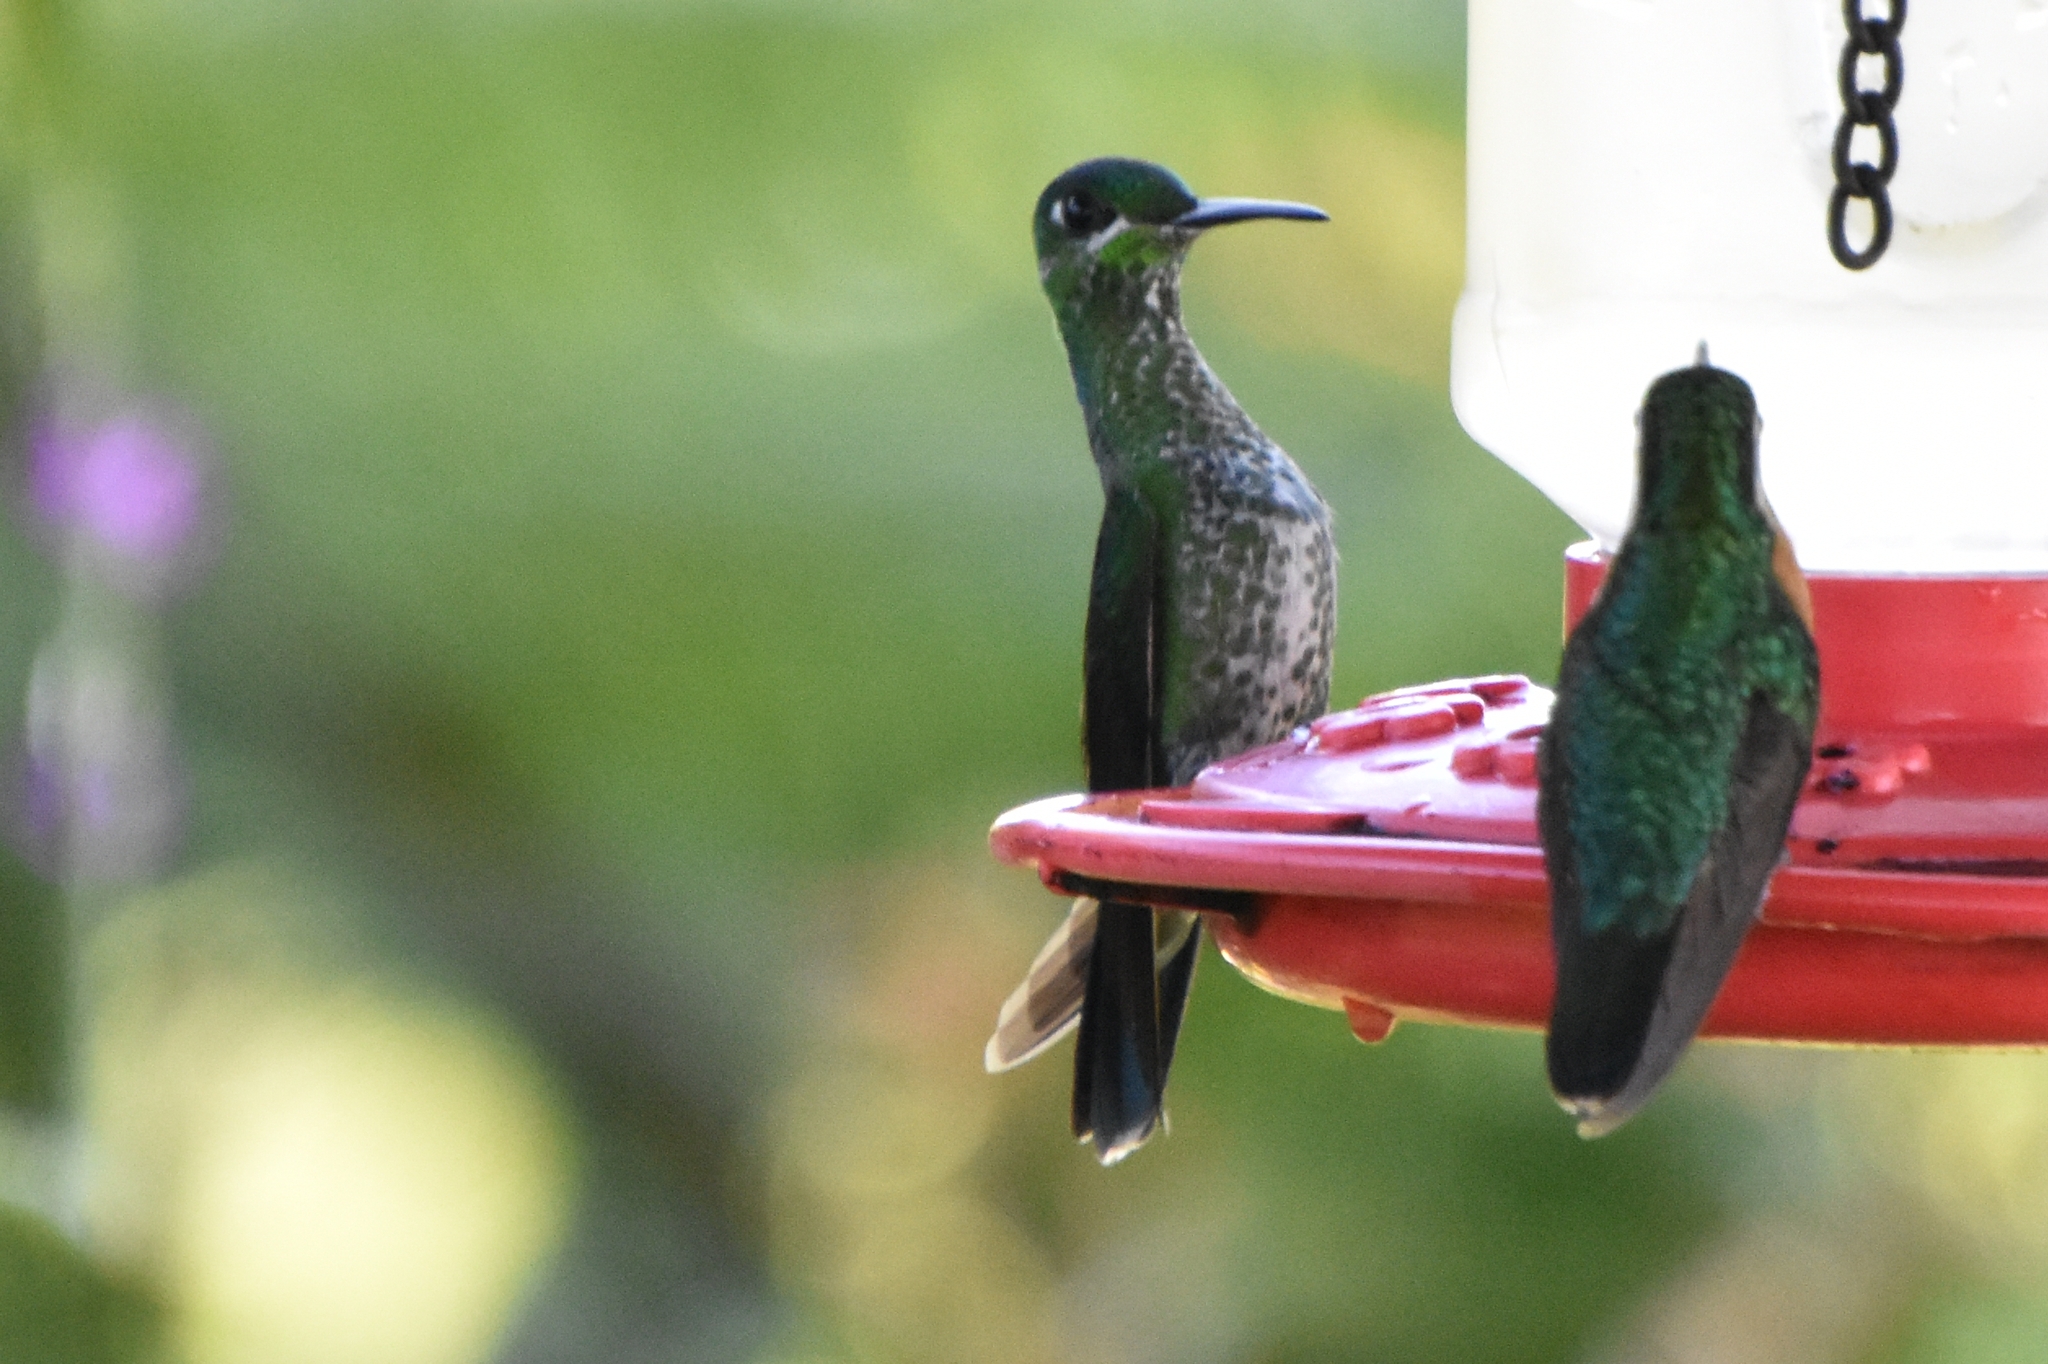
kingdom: Animalia
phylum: Chordata
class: Aves
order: Apodiformes
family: Trochilidae
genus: Heliodoxa
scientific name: Heliodoxa jacula
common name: Green-crowned brilliant
